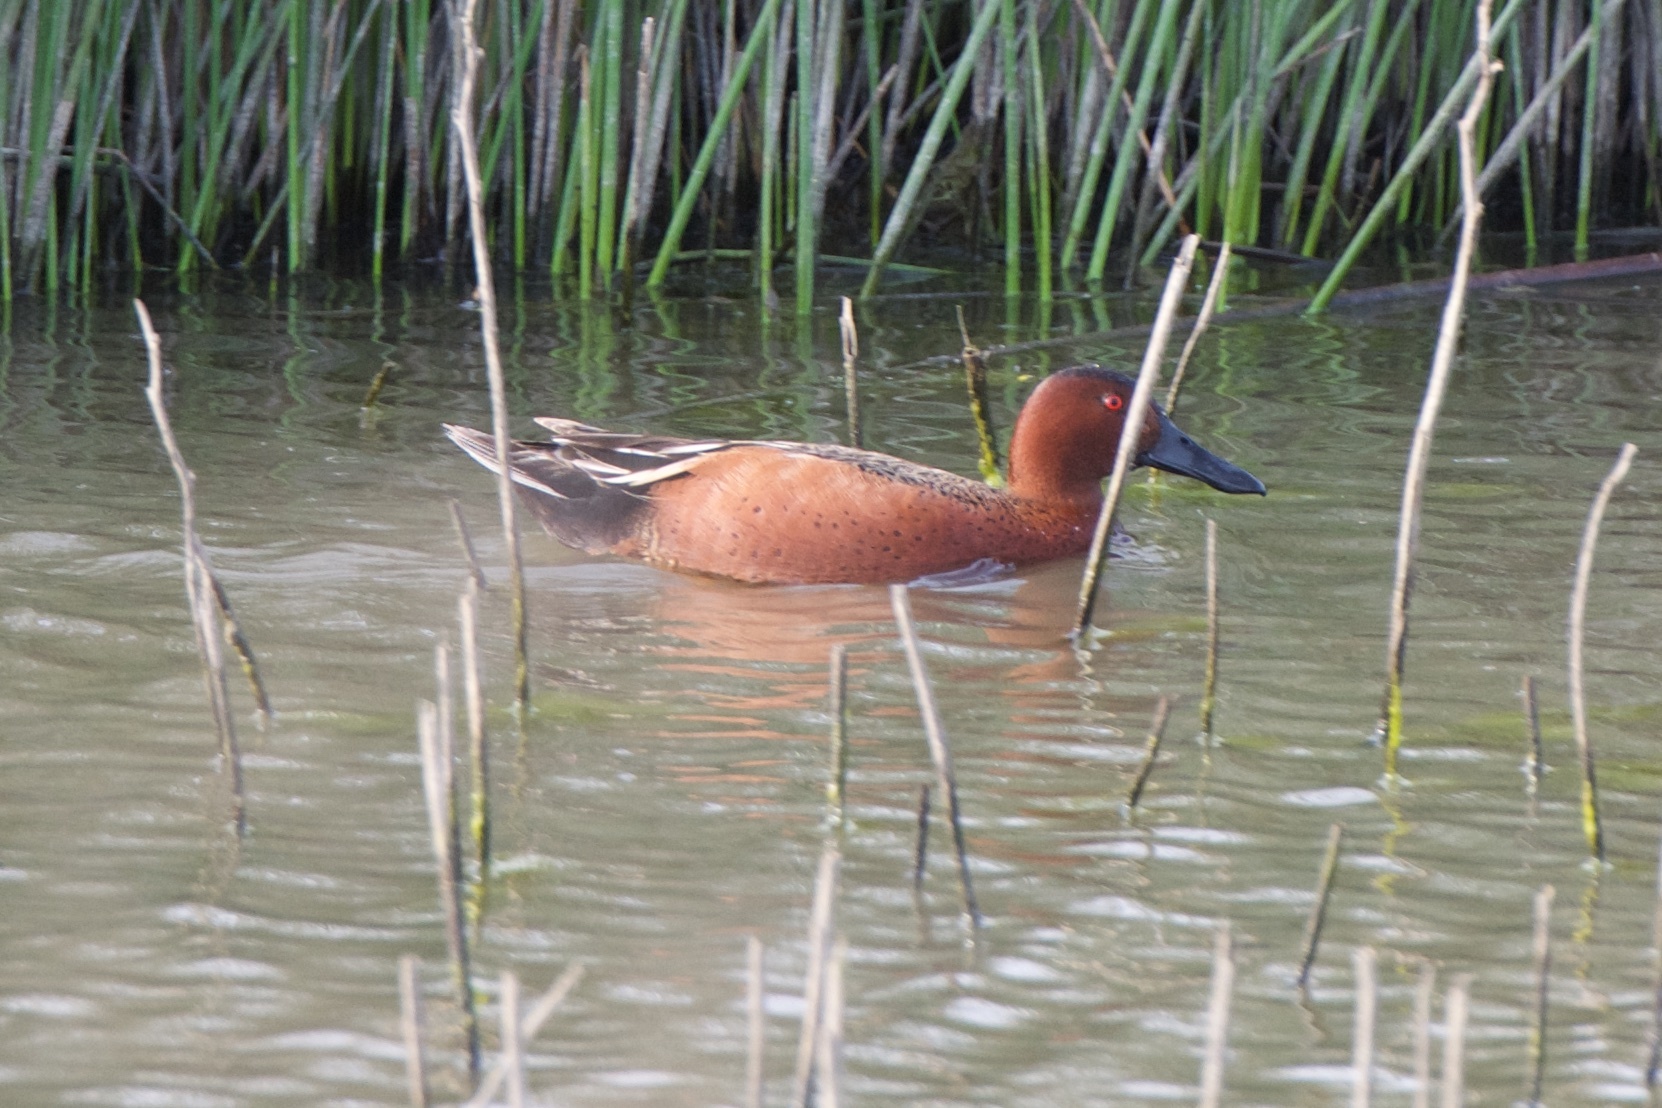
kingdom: Animalia
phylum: Chordata
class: Aves
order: Anseriformes
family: Anatidae
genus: Spatula
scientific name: Spatula cyanoptera
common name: Cinnamon teal
